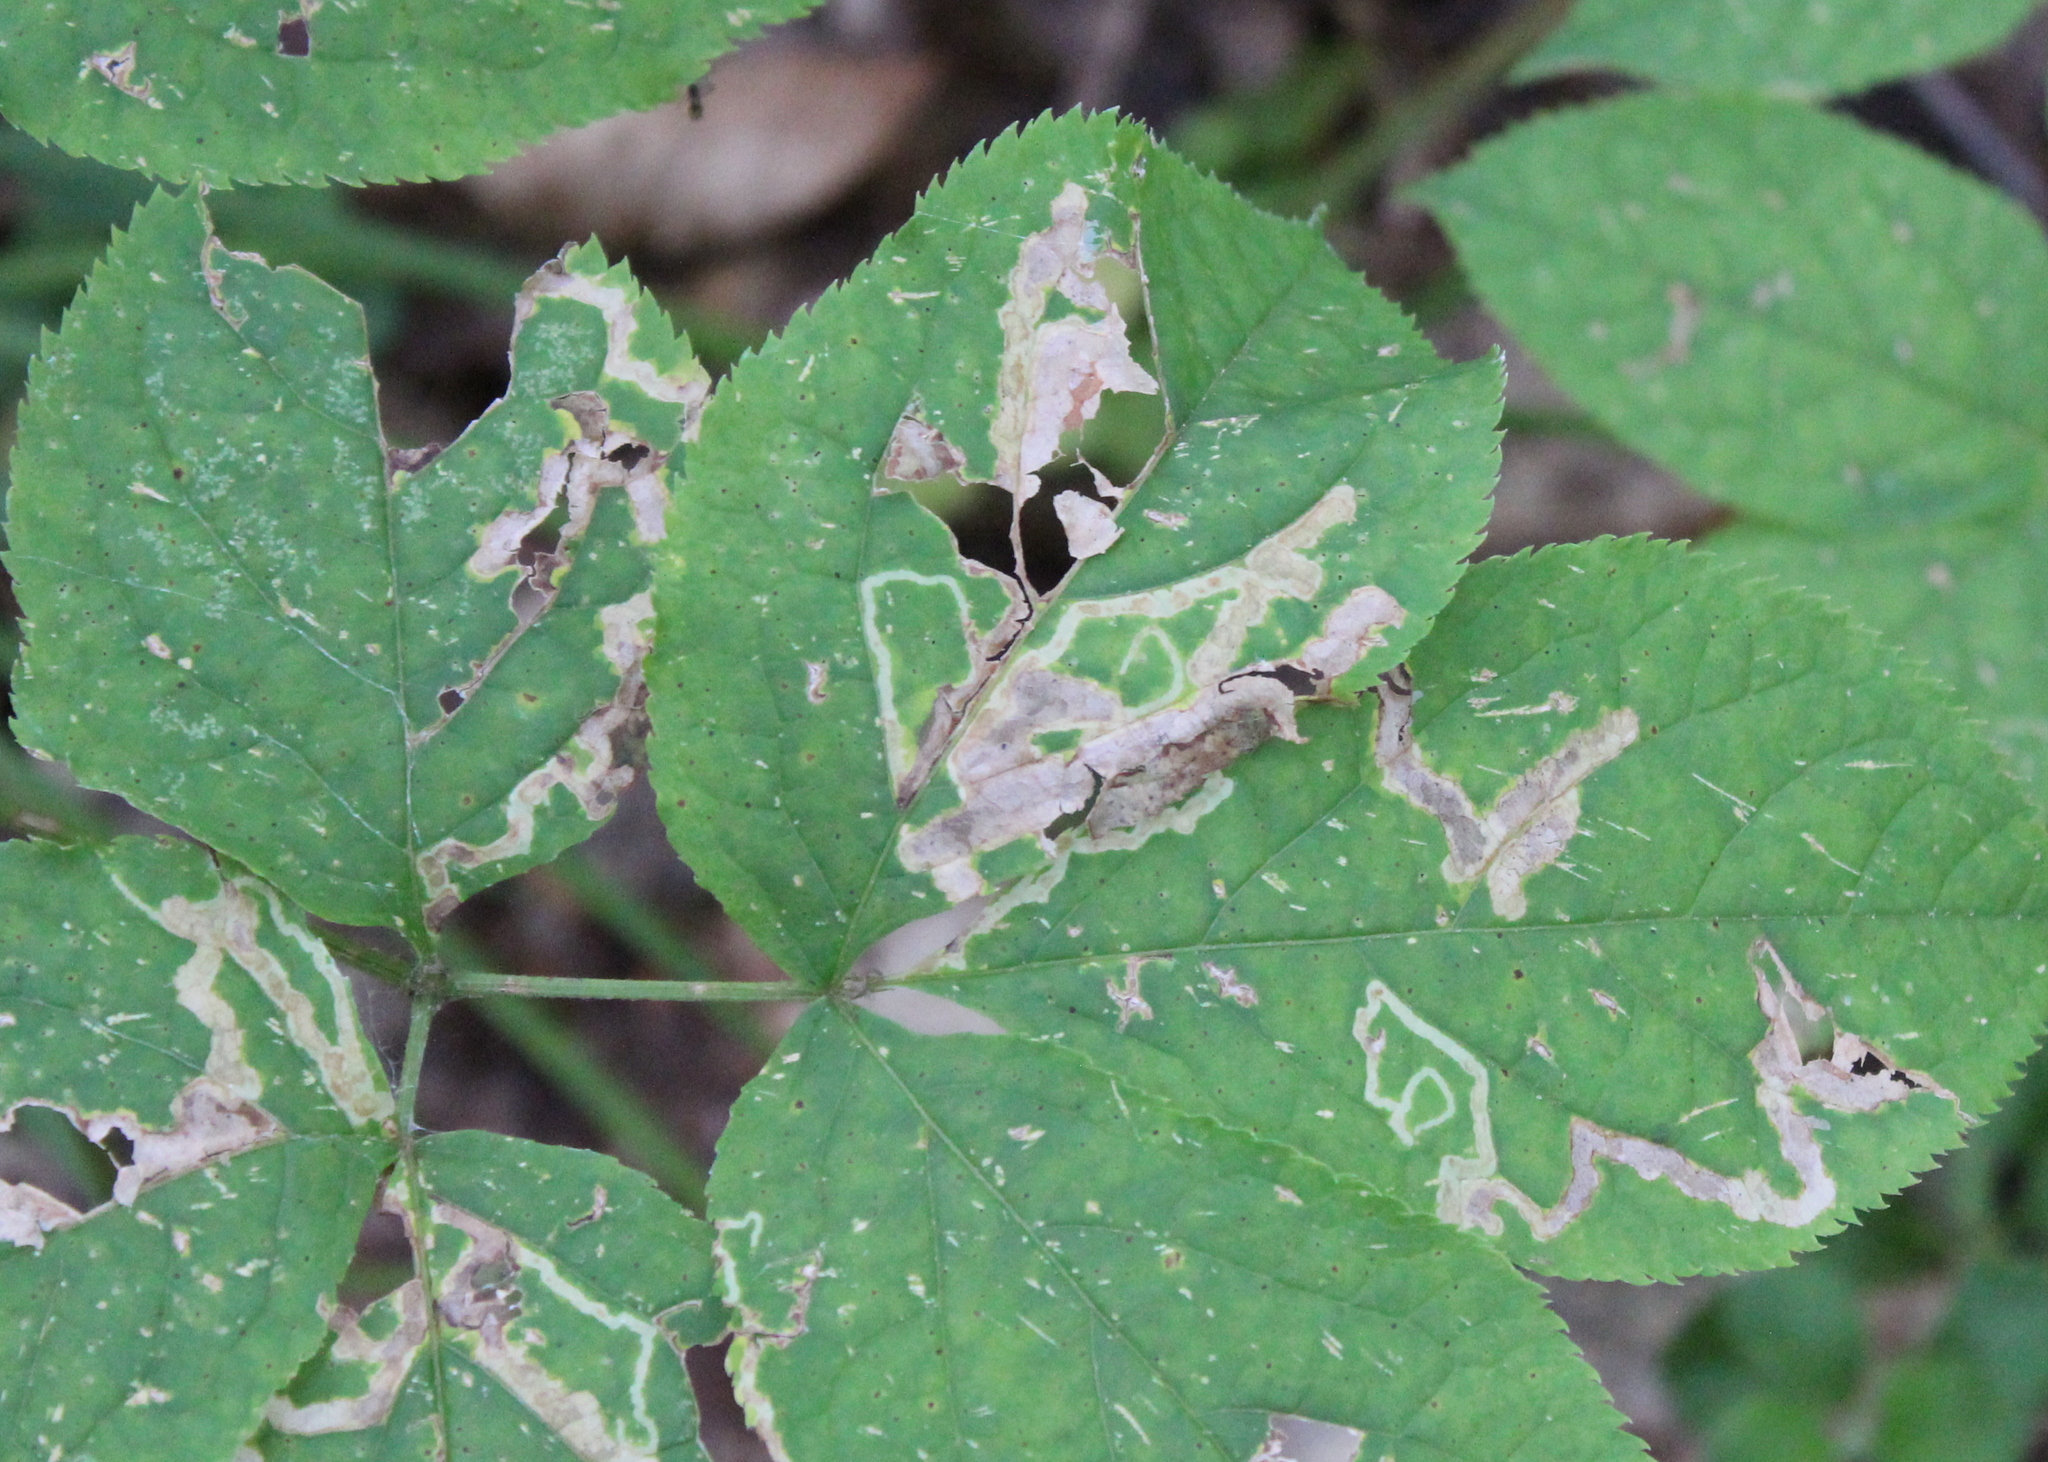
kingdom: Animalia
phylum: Arthropoda
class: Insecta
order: Diptera
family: Agromyzidae
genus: Phytomyza
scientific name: Phytomyza aralivora
